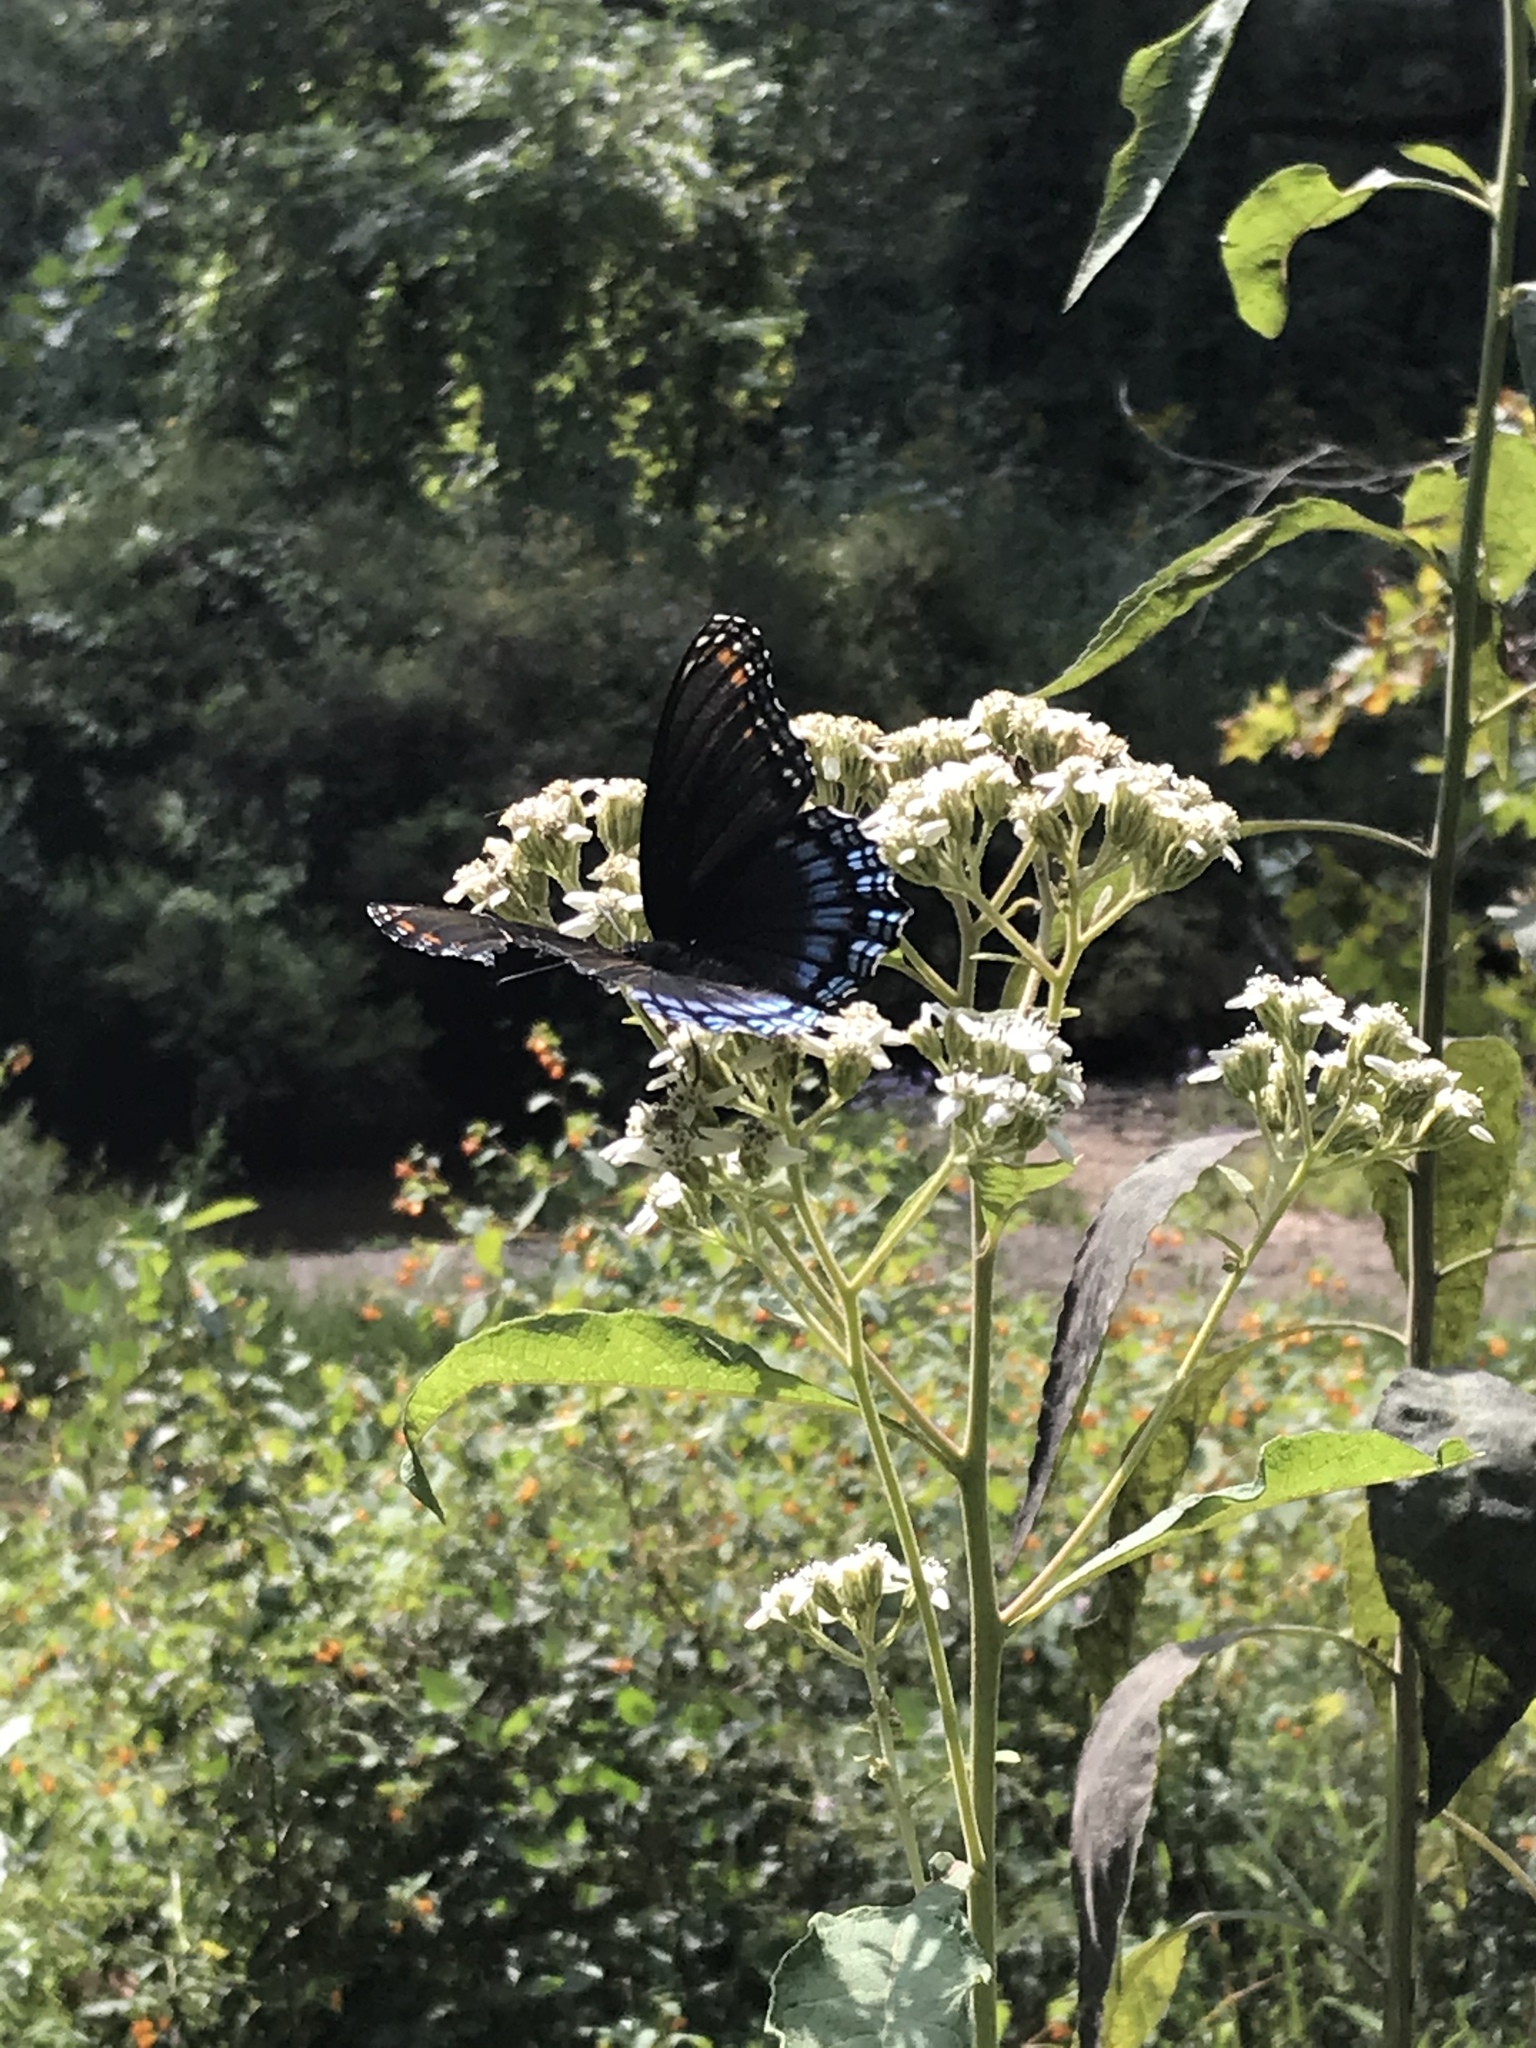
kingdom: Animalia
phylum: Arthropoda
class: Insecta
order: Lepidoptera
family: Nymphalidae
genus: Limenitis
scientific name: Limenitis astyanax
